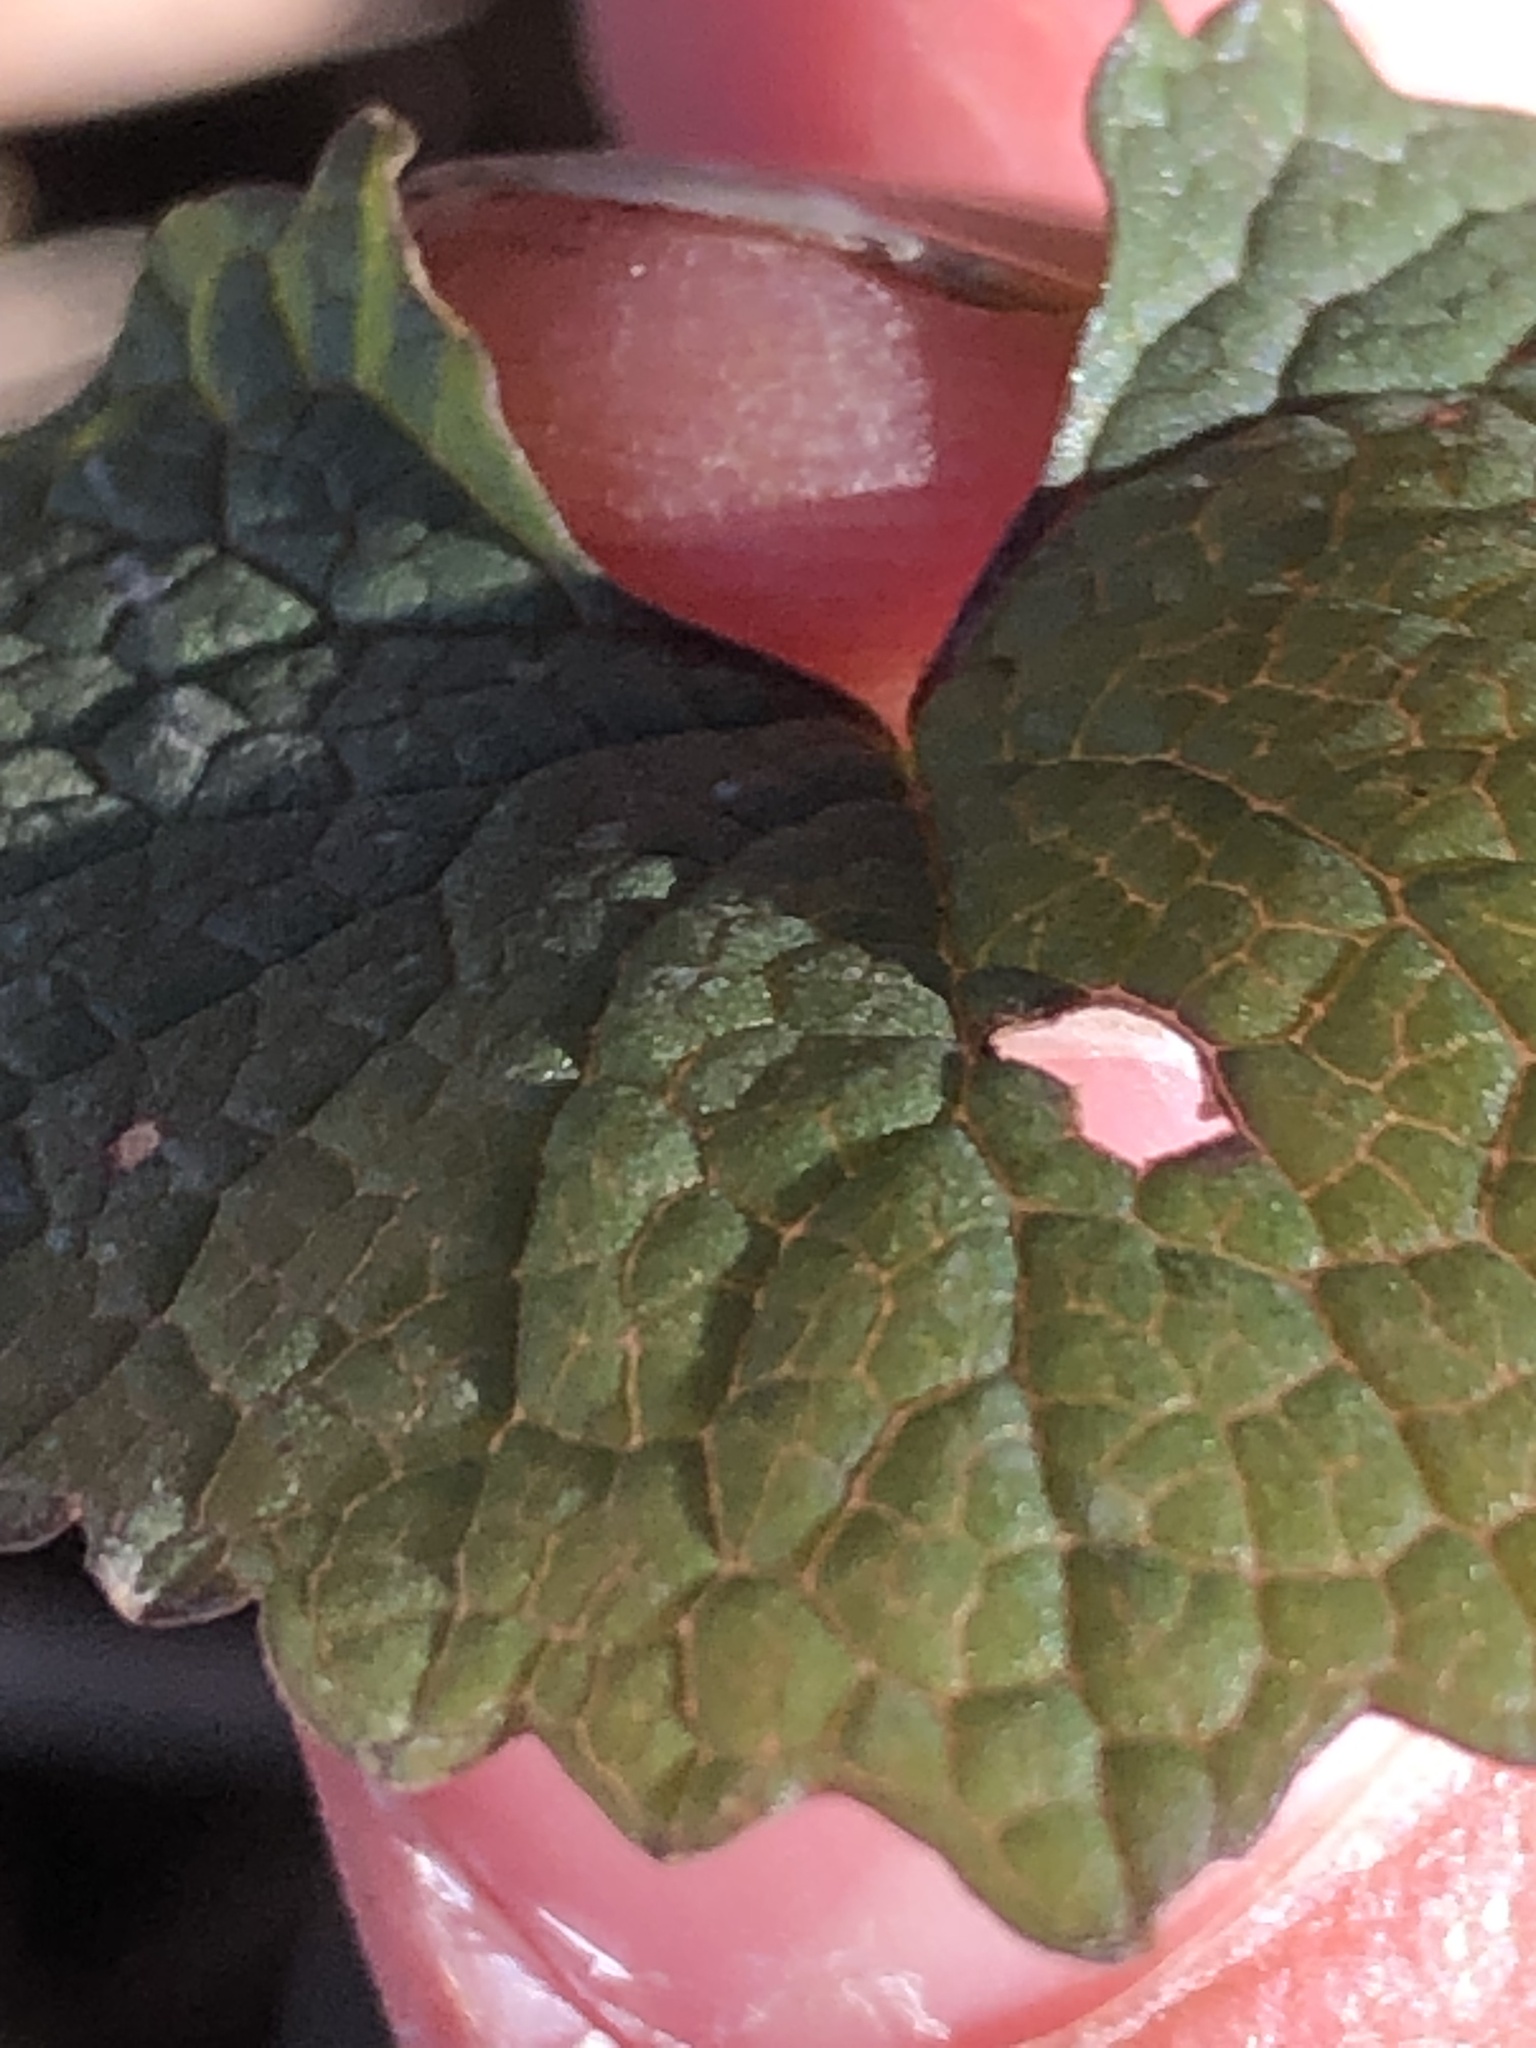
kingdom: Plantae
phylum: Tracheophyta
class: Magnoliopsida
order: Brassicales
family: Brassicaceae
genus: Alliaria
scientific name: Alliaria petiolata
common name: Garlic mustard
